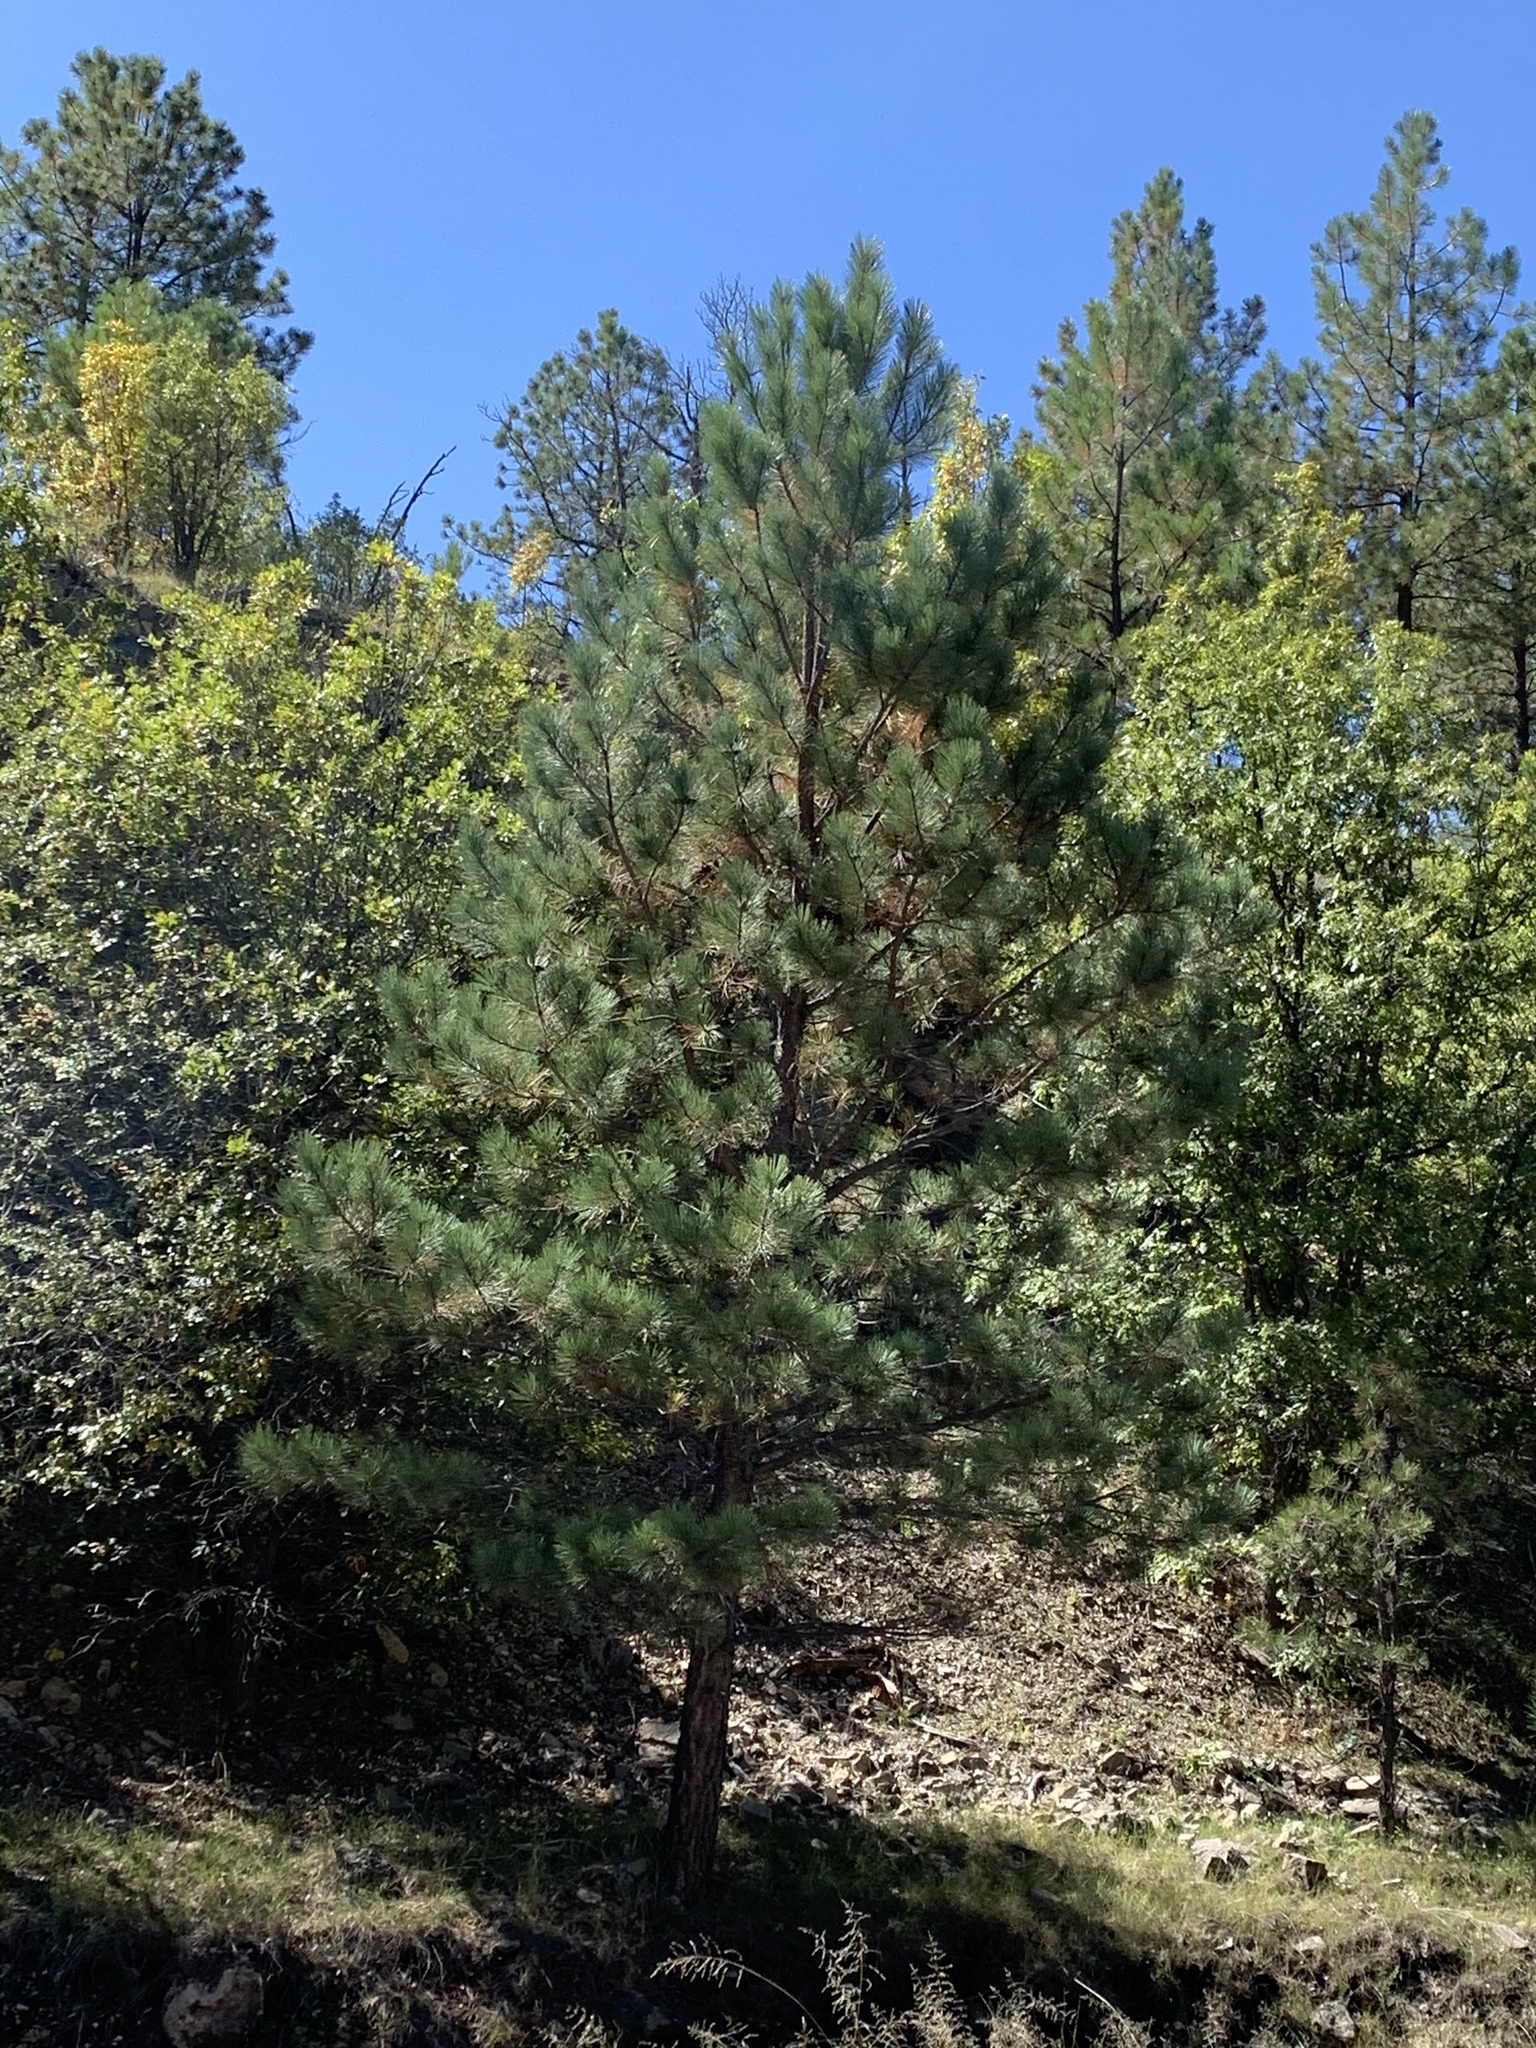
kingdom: Plantae
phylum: Tracheophyta
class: Pinopsida
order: Pinales
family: Pinaceae
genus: Pinus
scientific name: Pinus ponderosa
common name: Western yellow-pine
